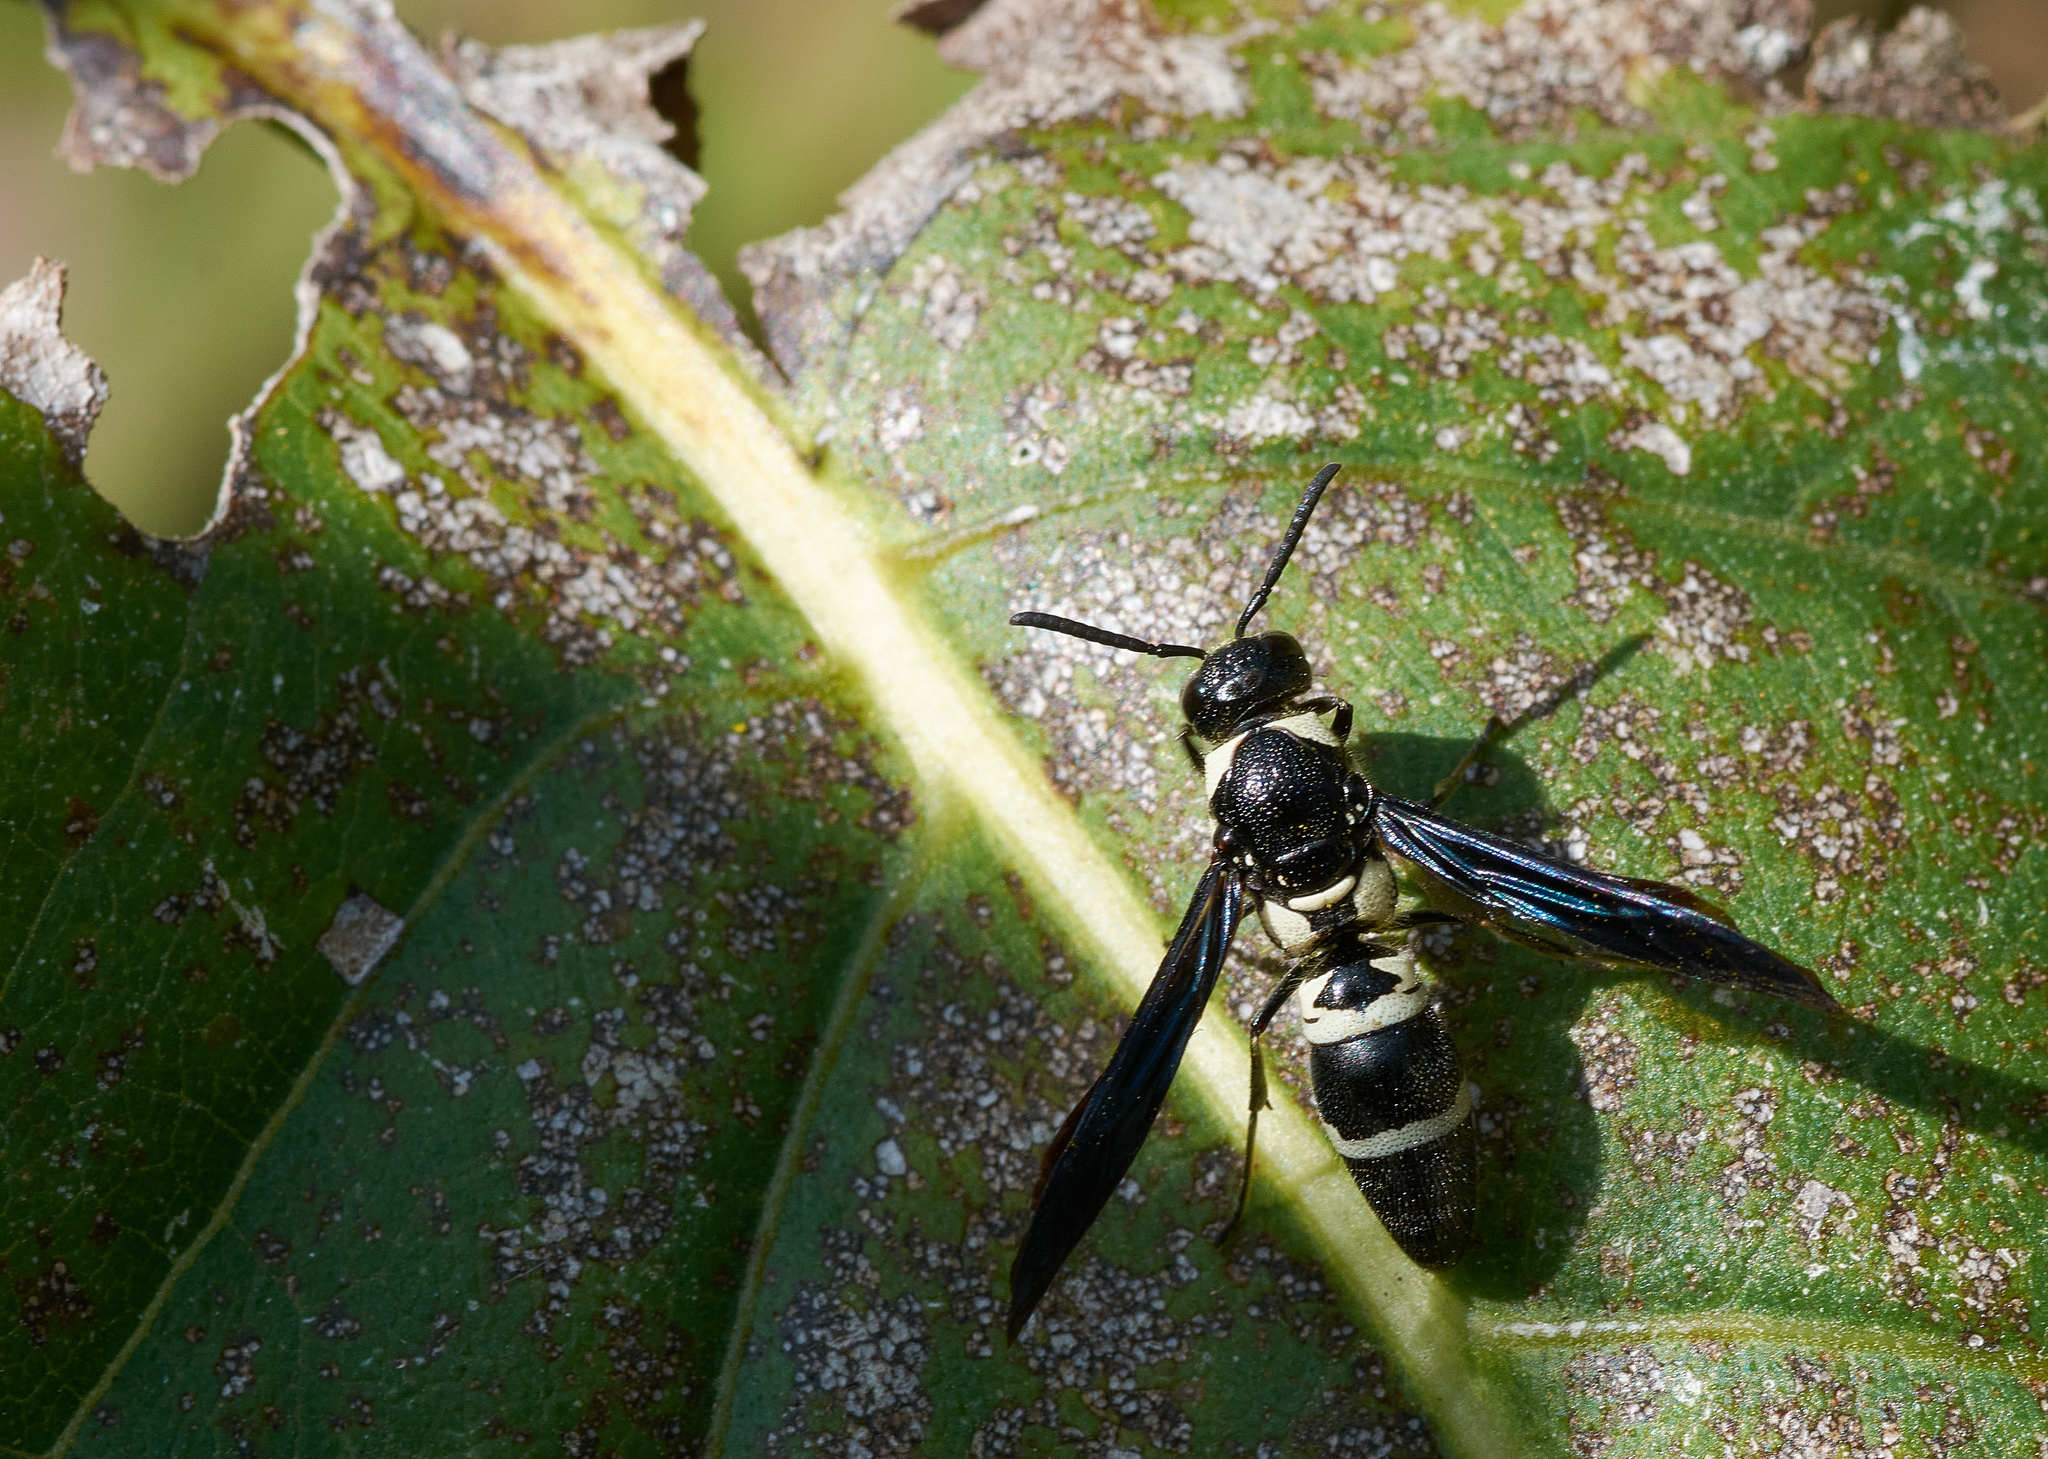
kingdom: Animalia
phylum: Arthropoda
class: Insecta
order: Hymenoptera
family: Eumenidae
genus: Pseudodynerus
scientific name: Pseudodynerus quadrisectus
